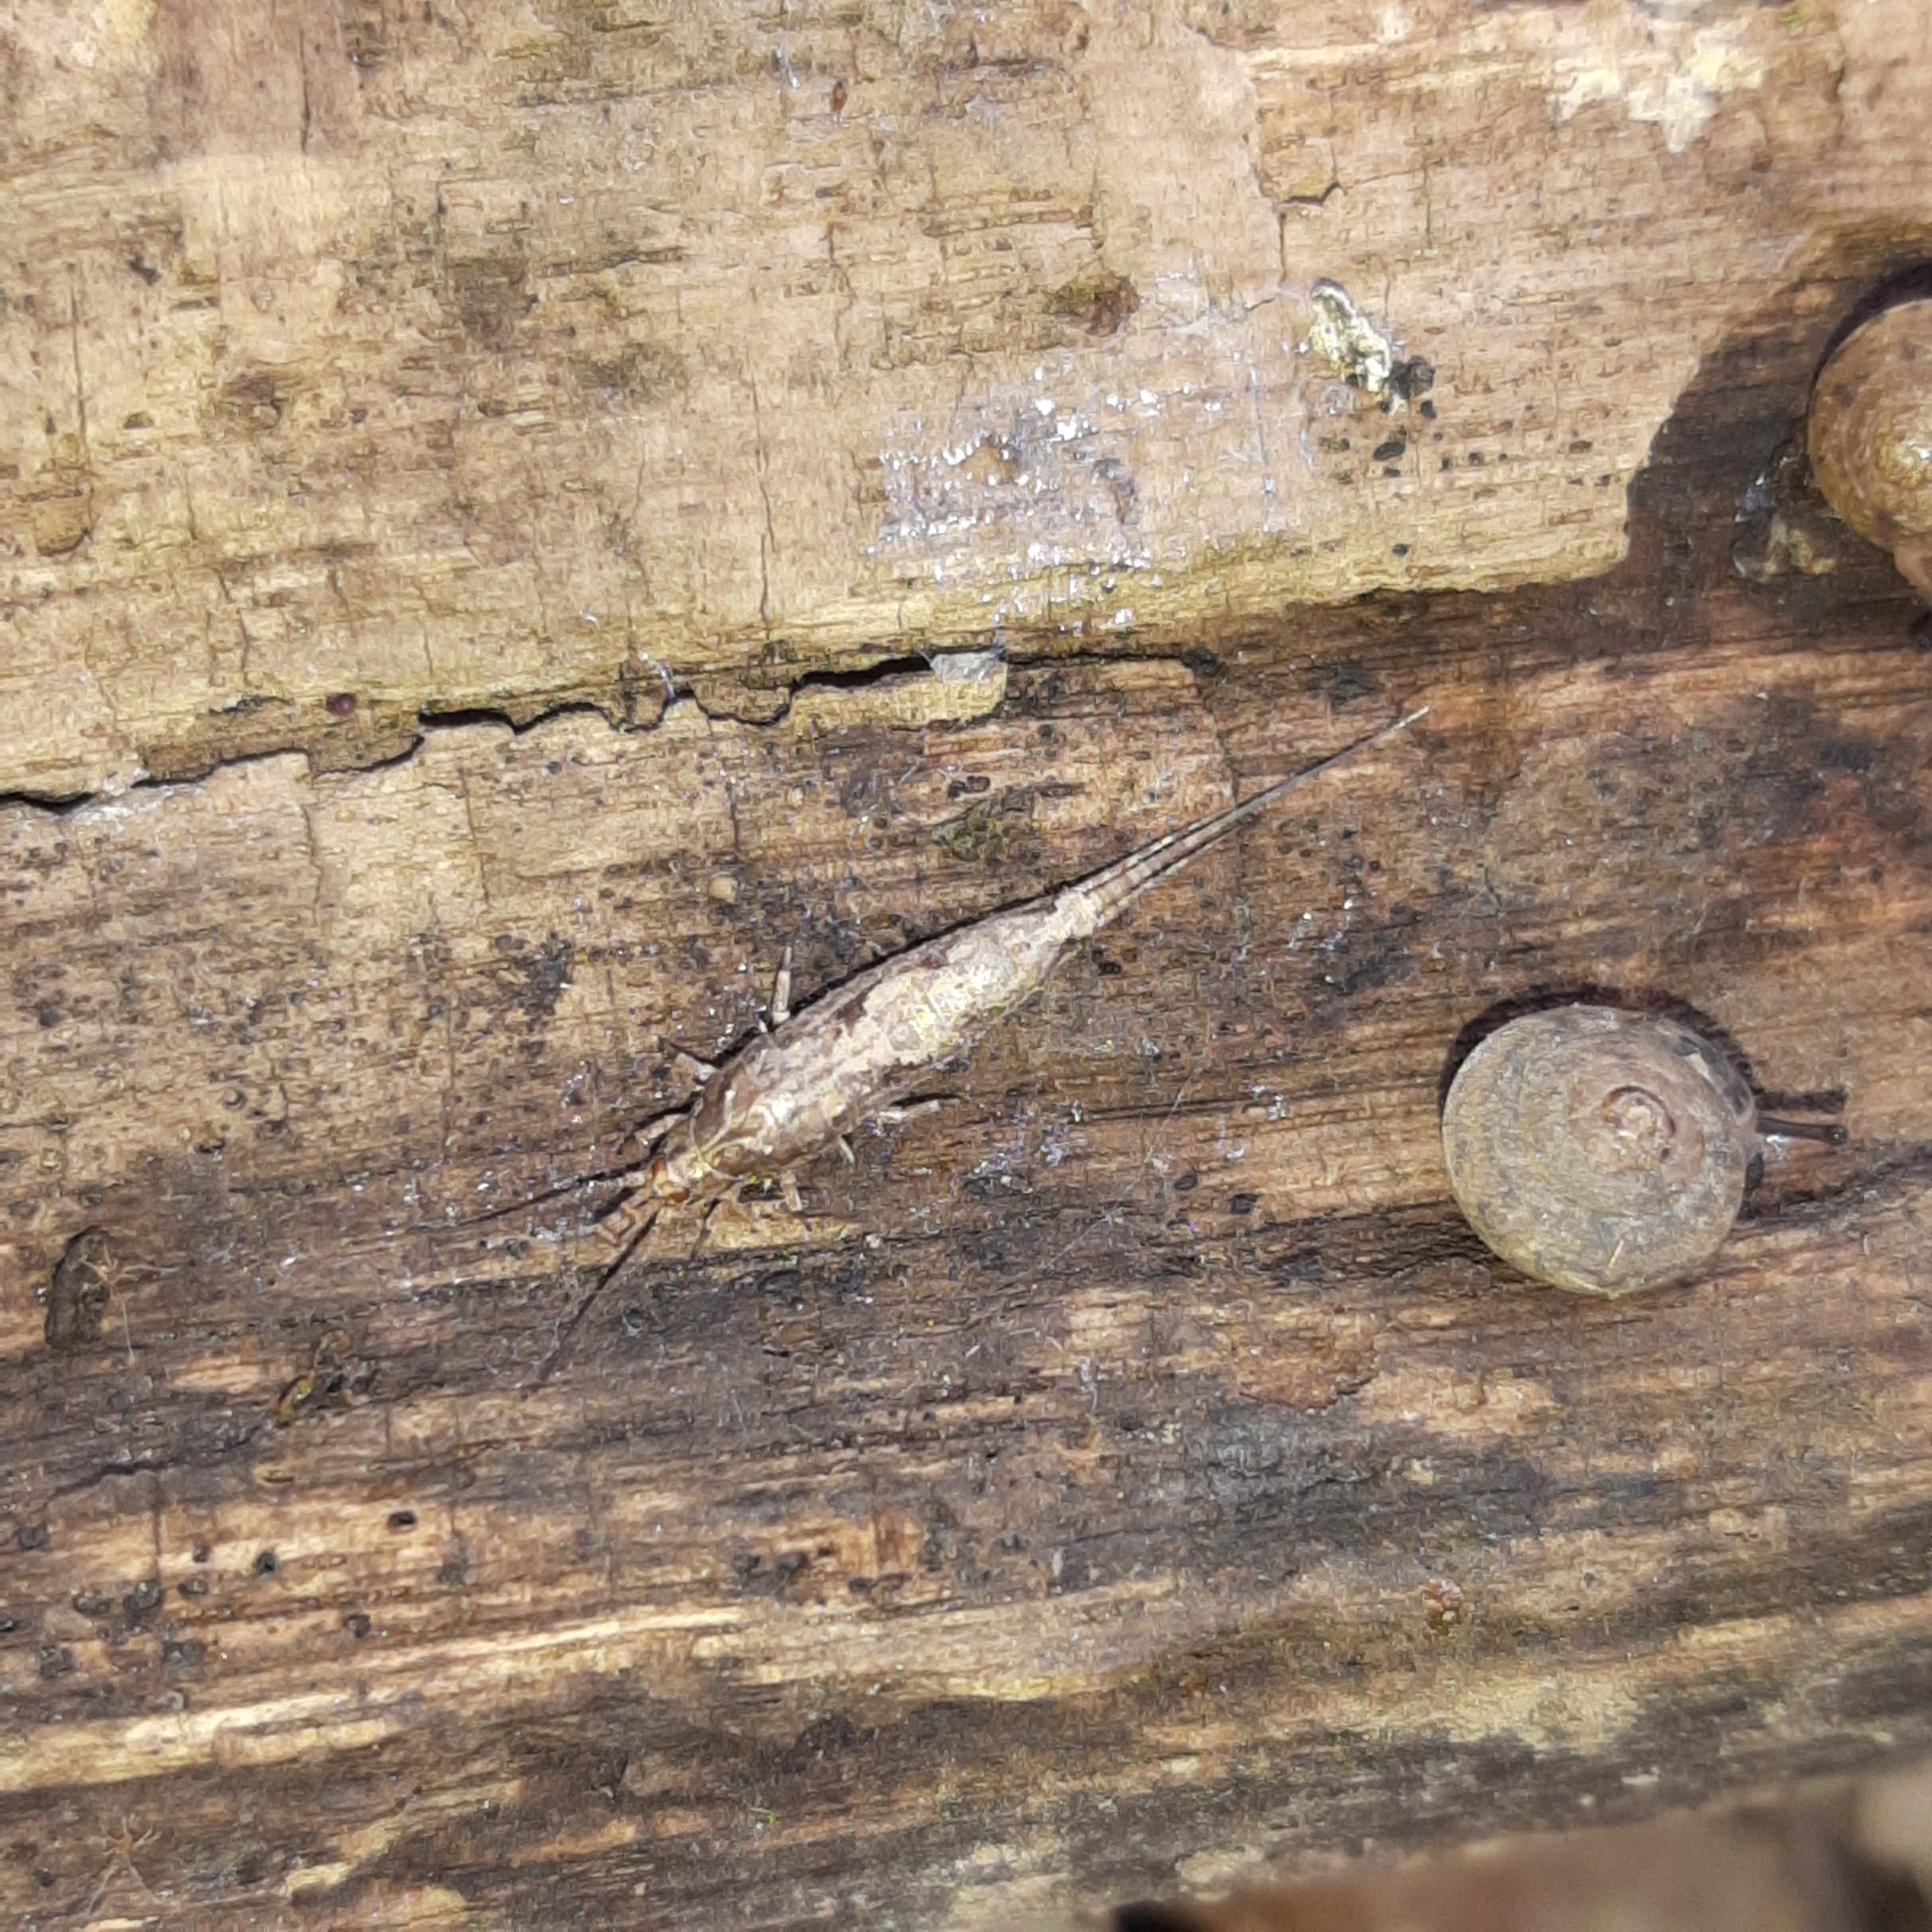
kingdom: Animalia
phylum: Arthropoda
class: Insecta
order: Archaeognatha
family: Machilidae
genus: Lepismachilis
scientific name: Lepismachilis rozsypali
